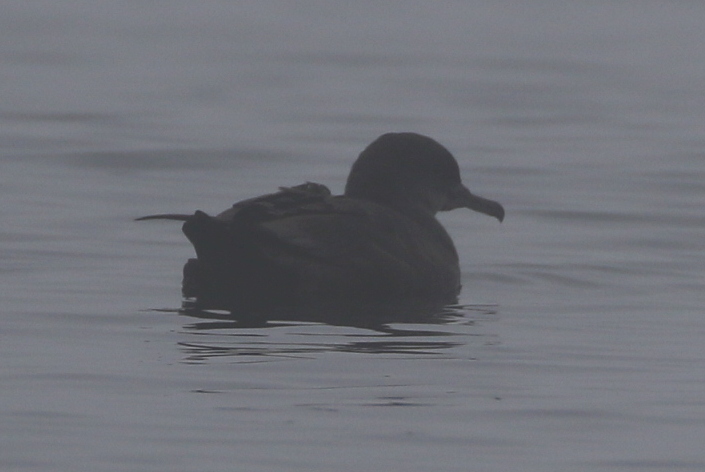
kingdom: Animalia
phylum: Chordata
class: Aves
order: Procellariiformes
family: Procellariidae
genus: Puffinus
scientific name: Puffinus griseus
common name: Sooty shearwater
